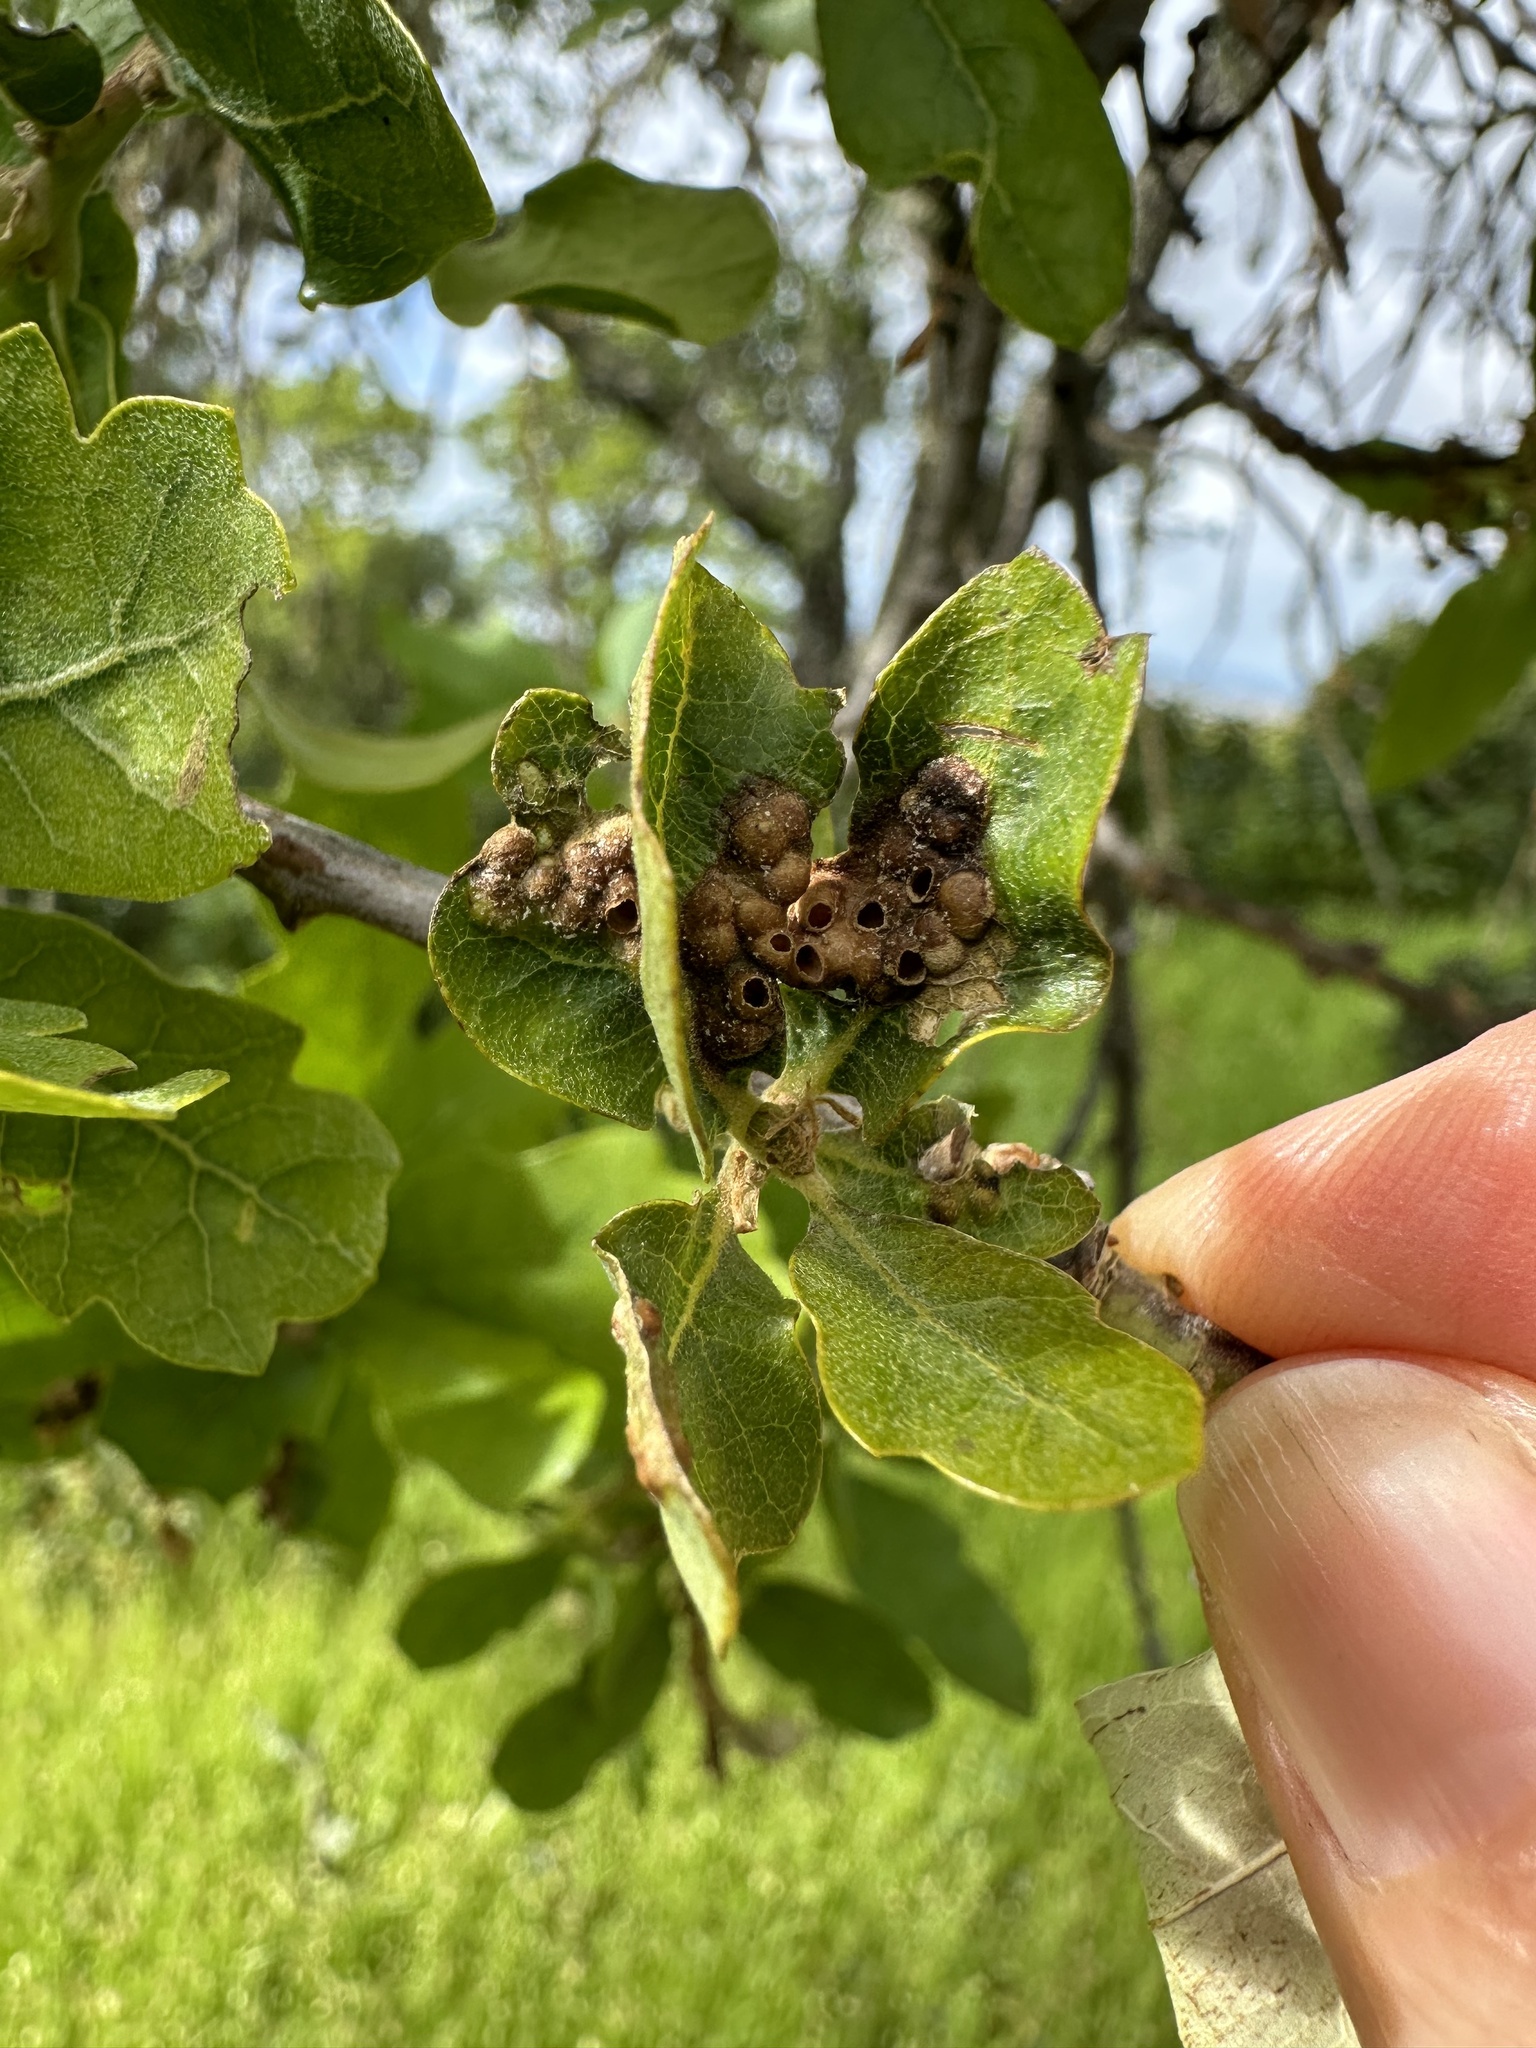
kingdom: Animalia
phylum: Arthropoda
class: Insecta
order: Hymenoptera
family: Cynipidae
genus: Neuroterus
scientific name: Neuroterus saltarius
